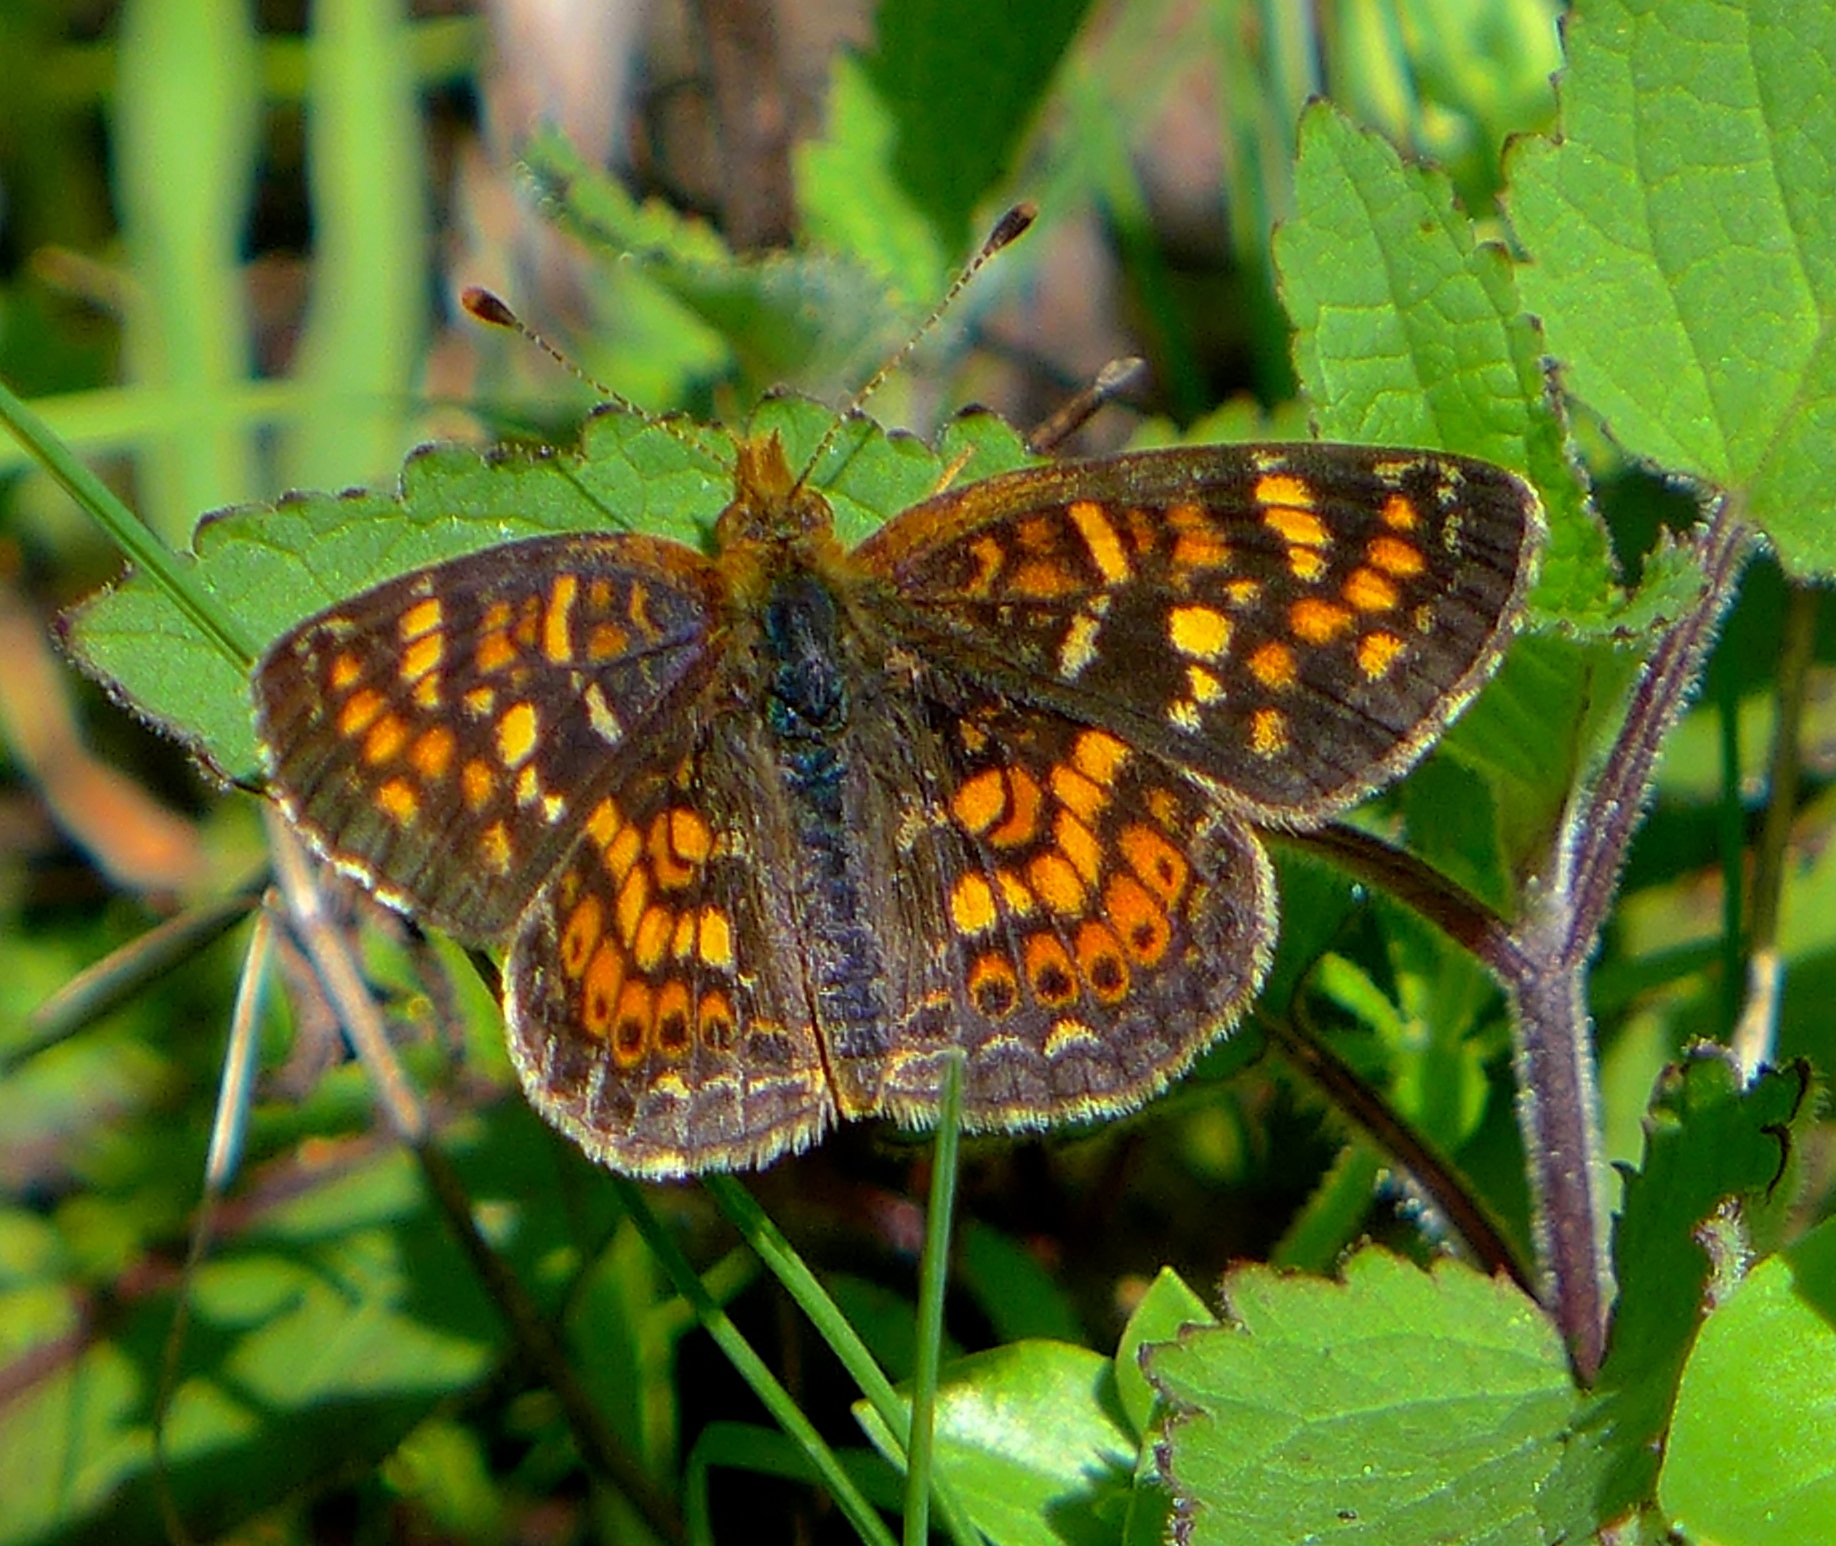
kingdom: Animalia
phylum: Arthropoda
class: Insecta
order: Lepidoptera
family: Nymphalidae
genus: Phyciodes
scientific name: Phyciodes tharos
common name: Pearl crescent
